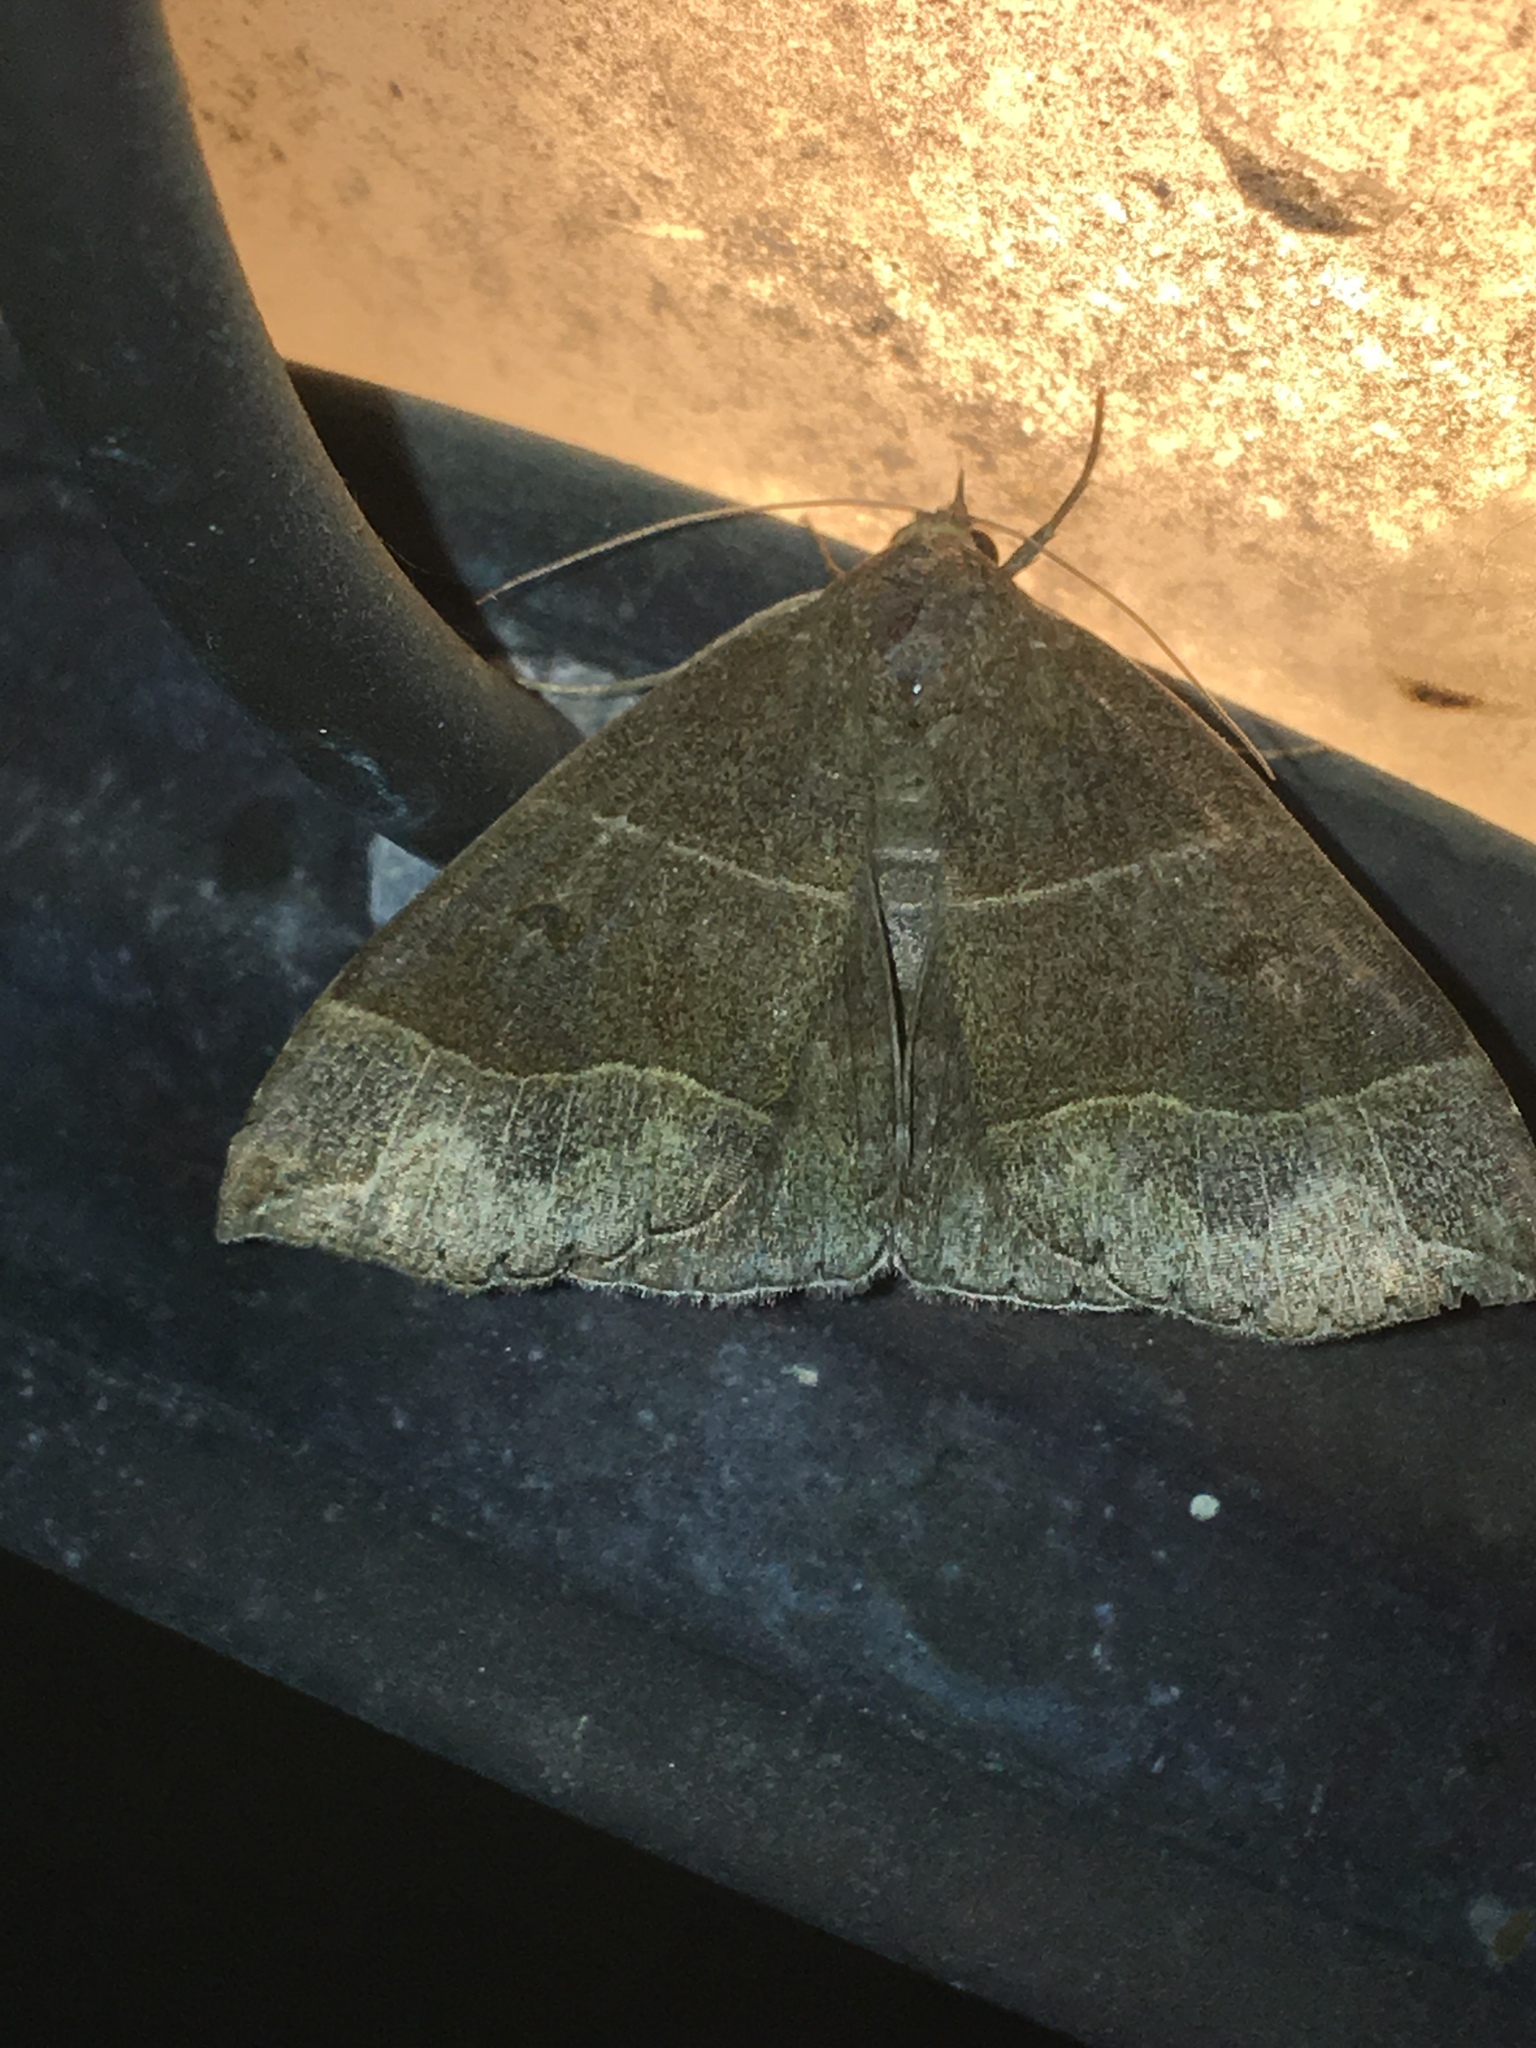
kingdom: Animalia
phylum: Arthropoda
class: Insecta
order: Lepidoptera
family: Erebidae
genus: Parallelia
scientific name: Parallelia bistriaris
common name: Maple looper moth
